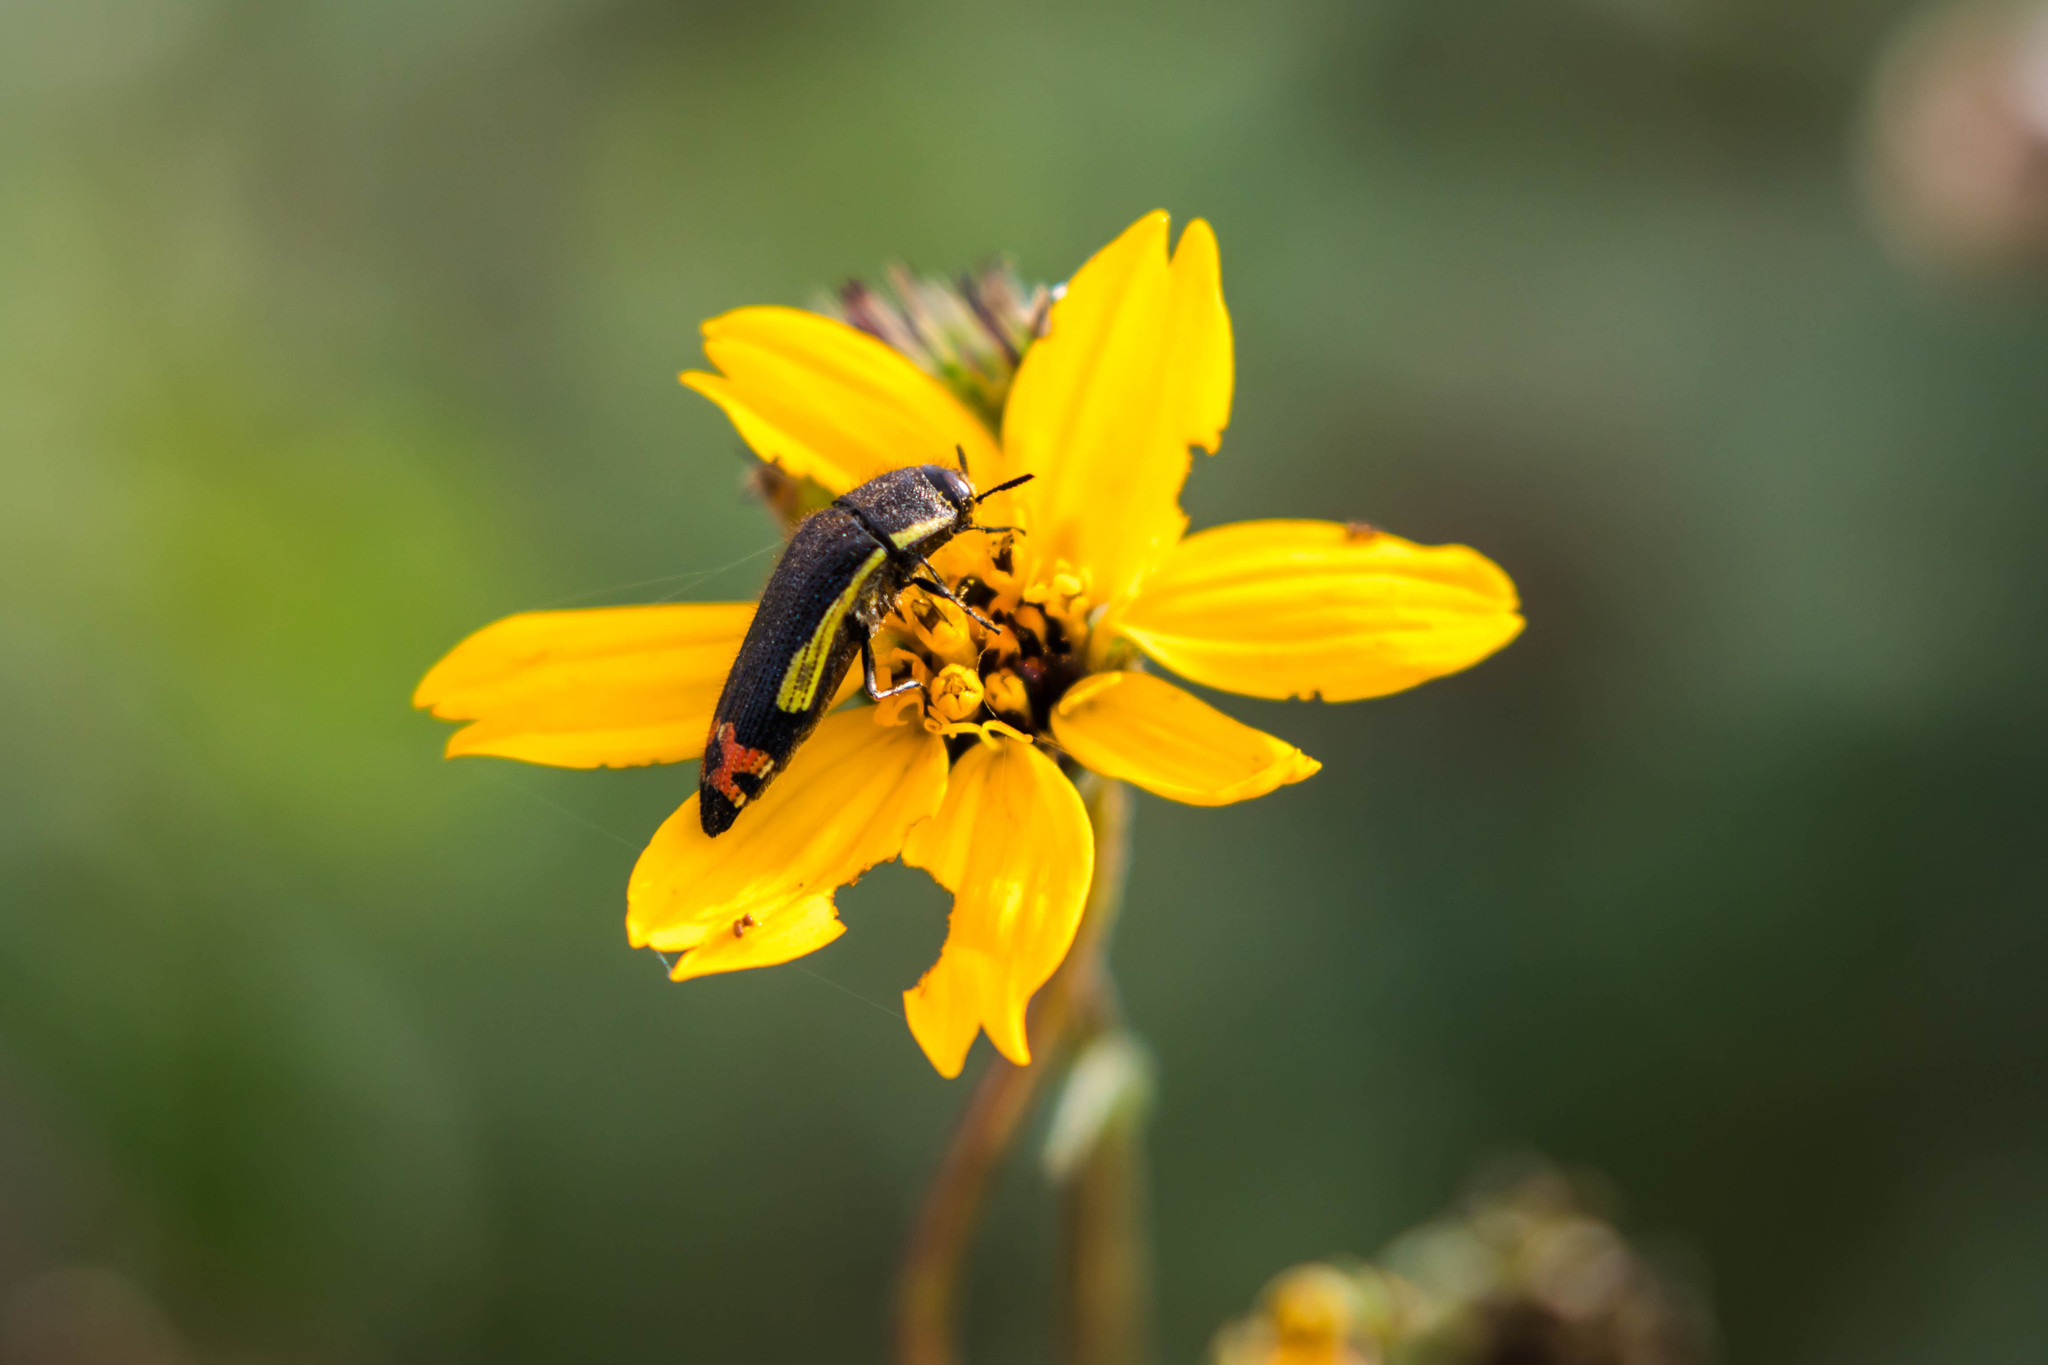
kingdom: Animalia
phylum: Arthropoda
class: Insecta
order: Coleoptera
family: Buprestidae
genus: Acmaeodera
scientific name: Acmaeodera flavomarginata
